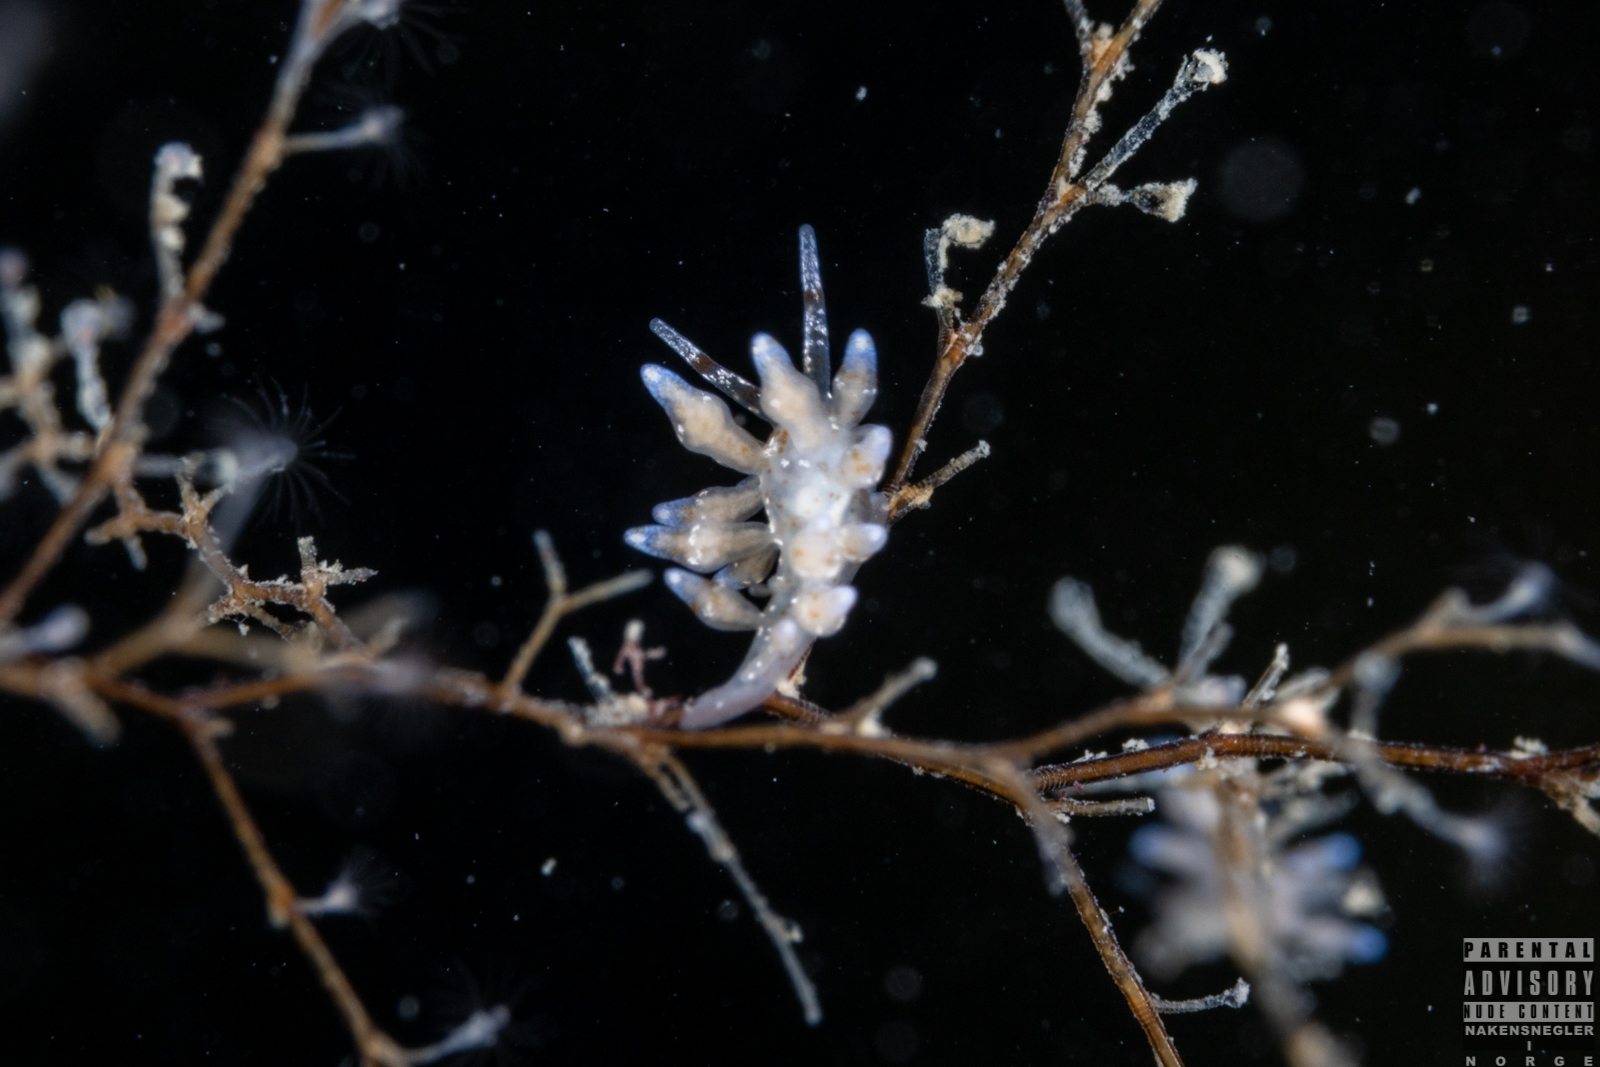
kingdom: Animalia
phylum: Mollusca
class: Gastropoda
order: Nudibranchia
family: Eubranchidae
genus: Eubranchus
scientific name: Eubranchus rupium
